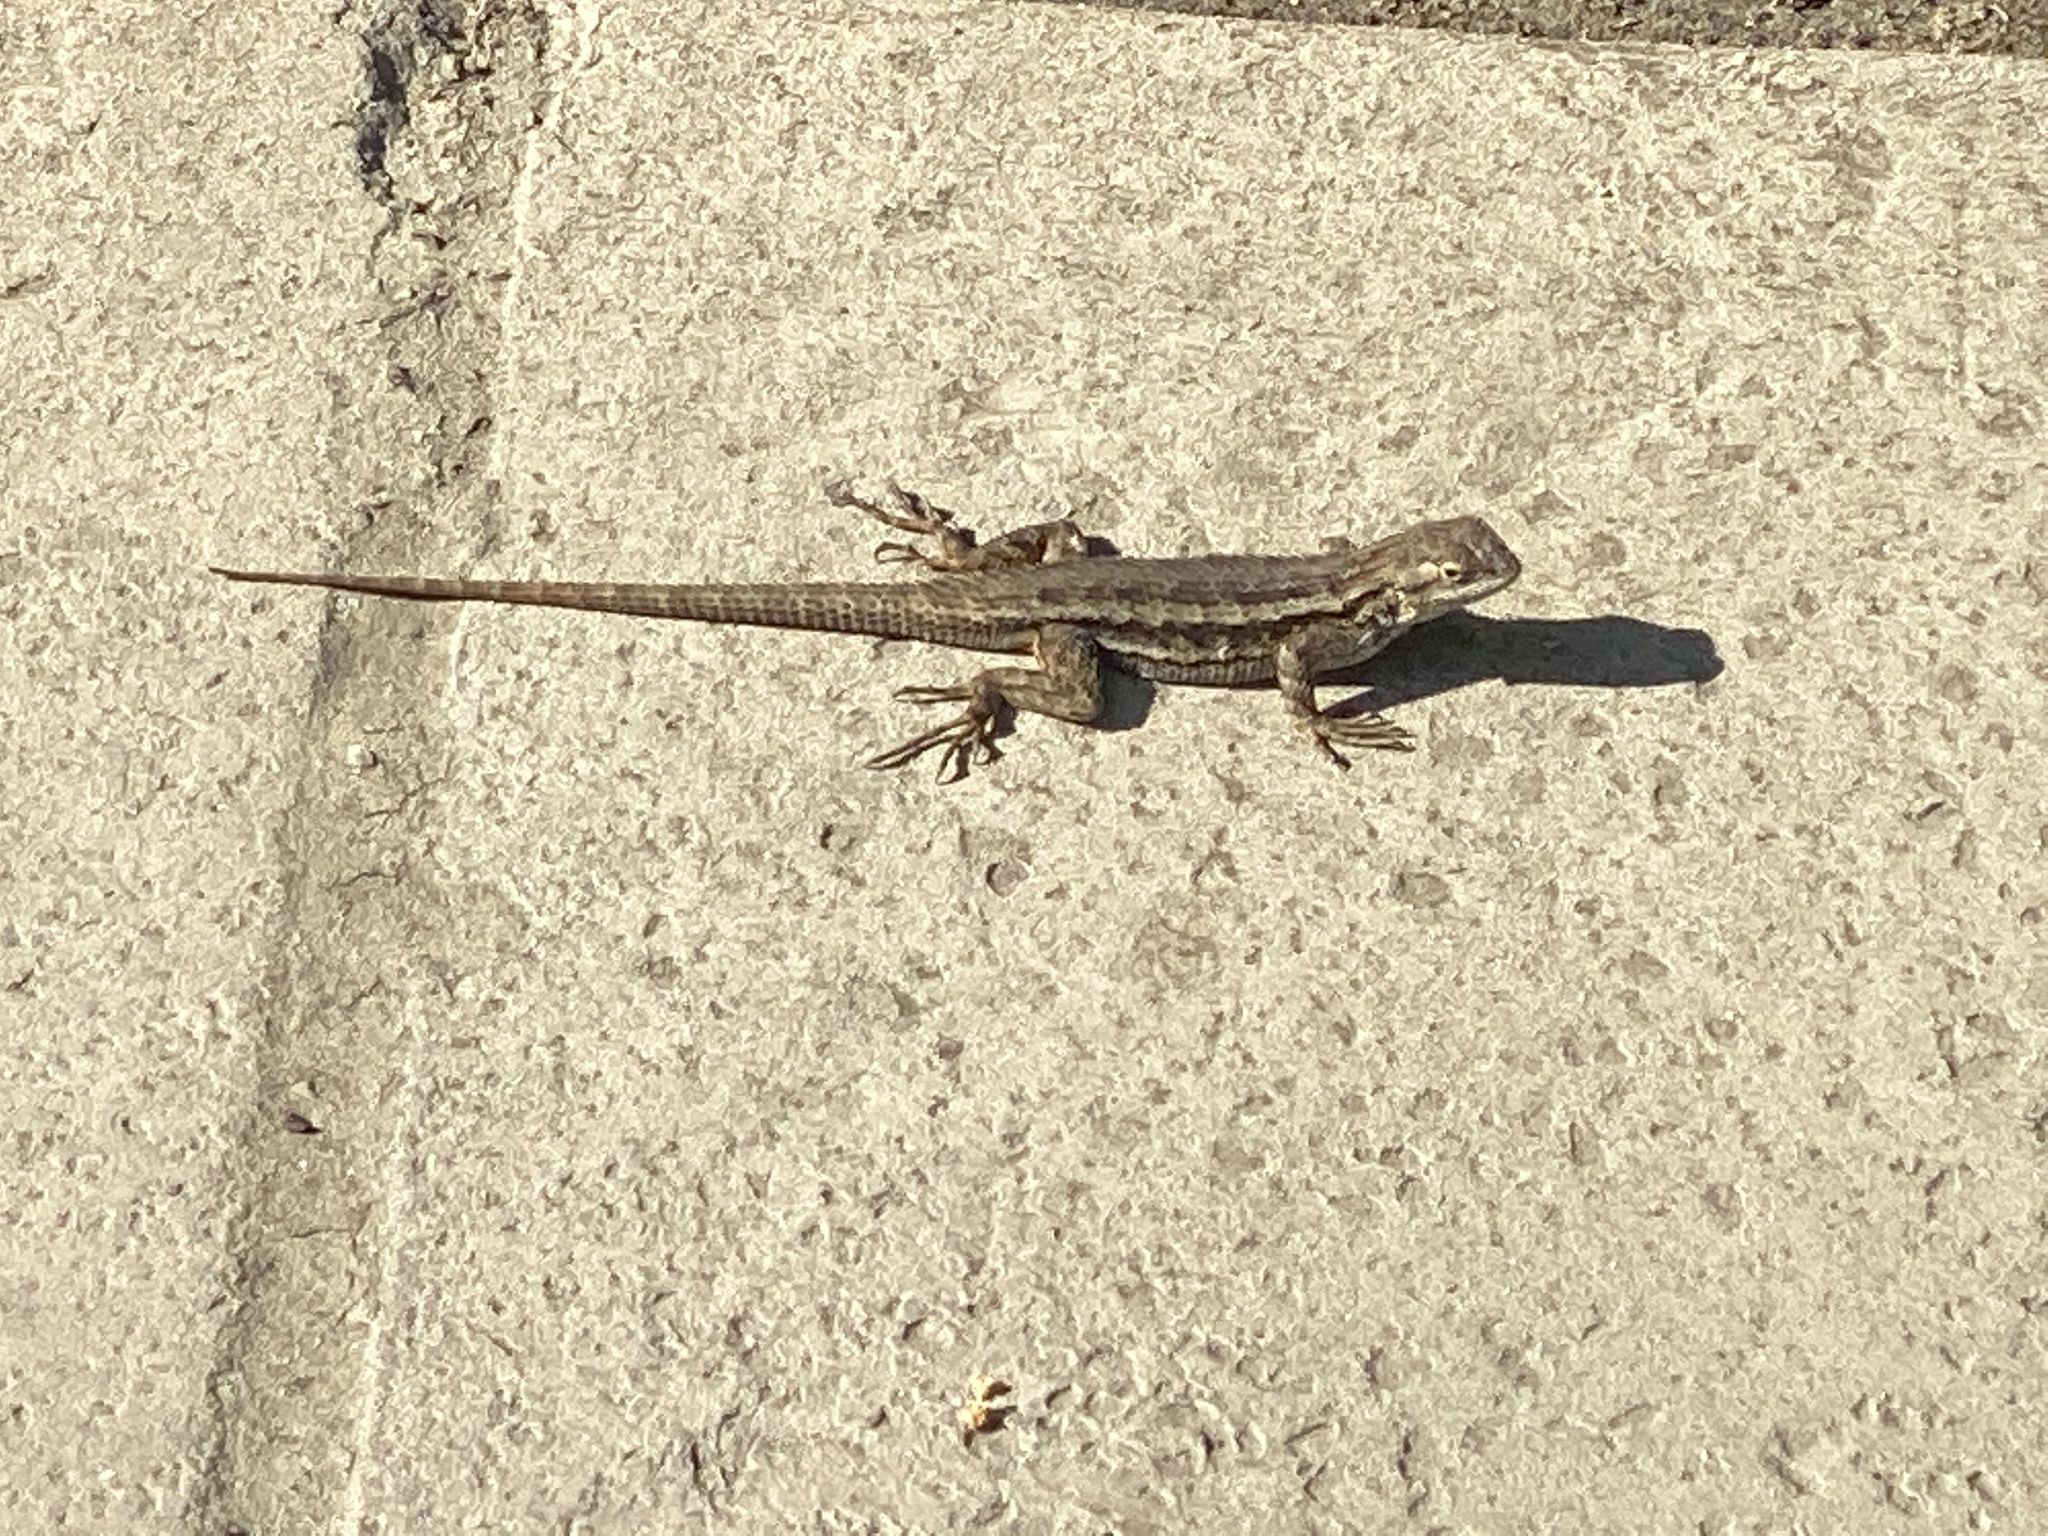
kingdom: Animalia
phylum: Chordata
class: Squamata
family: Phrynosomatidae
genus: Sceloporus
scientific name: Sceloporus occidentalis
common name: Western fence lizard
